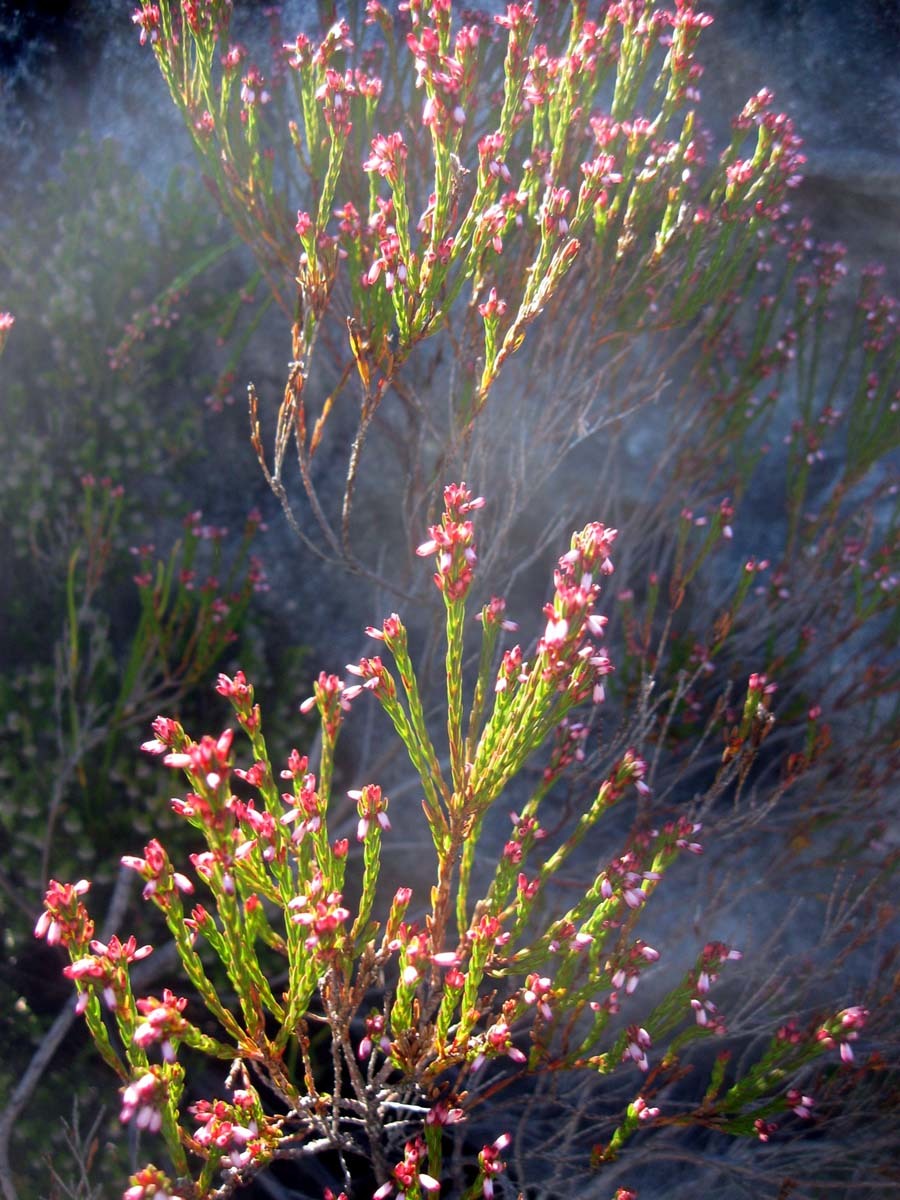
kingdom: Plantae
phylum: Tracheophyta
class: Magnoliopsida
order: Ericales
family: Ericaceae
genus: Erica
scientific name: Erica articularis
